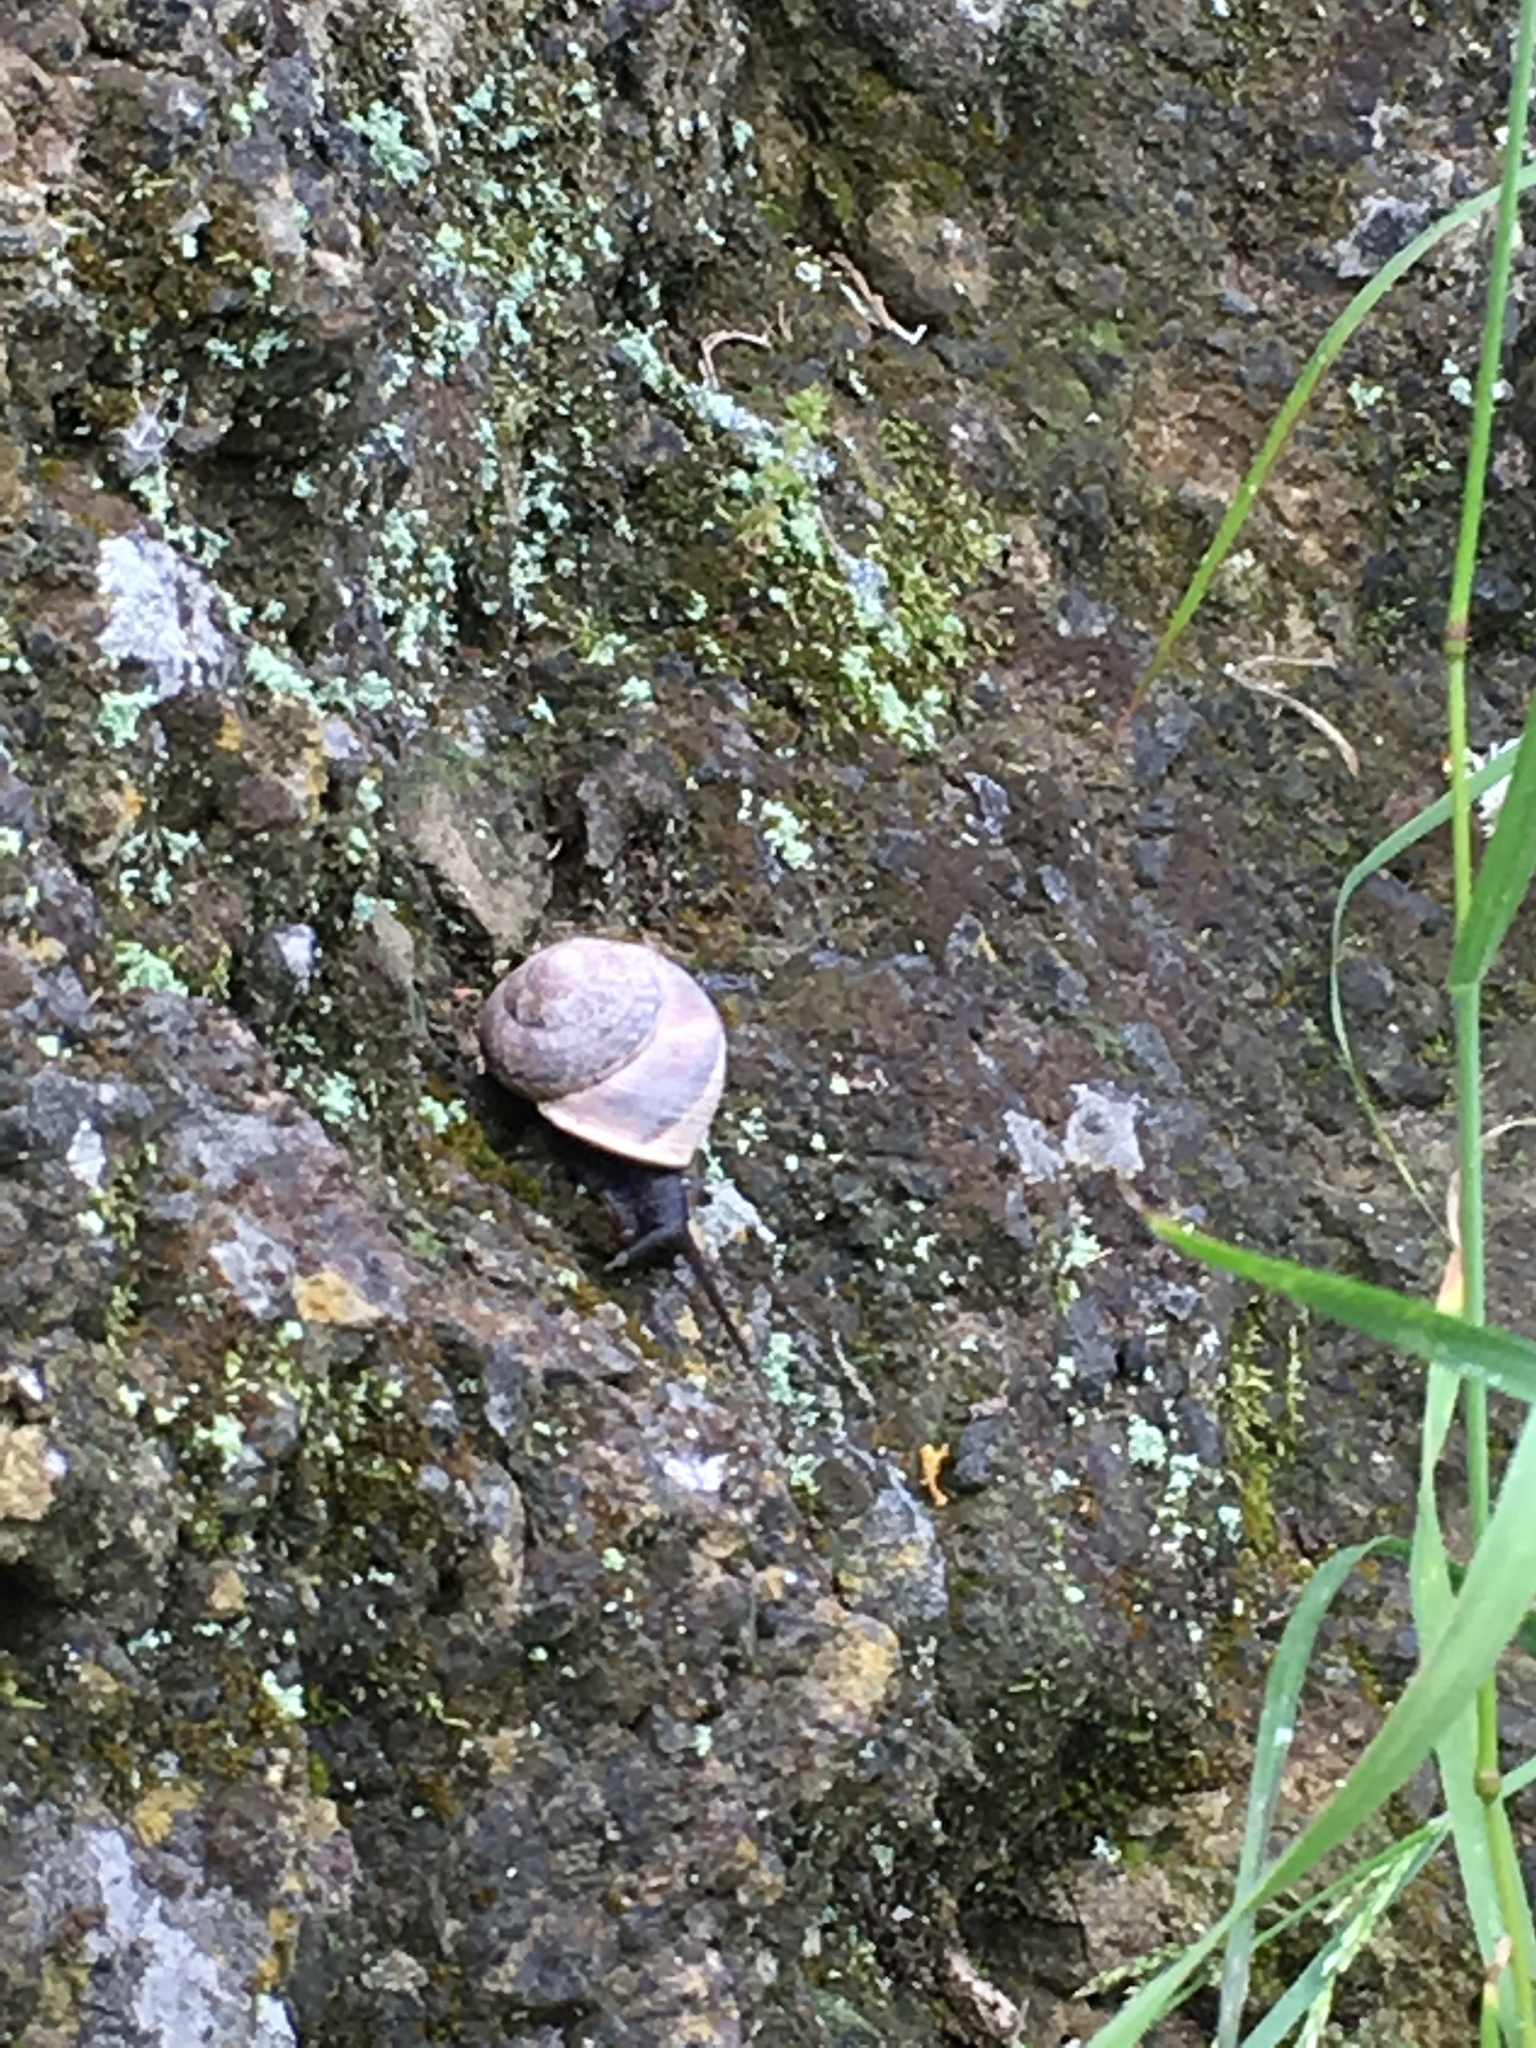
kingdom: Animalia
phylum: Mollusca
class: Gastropoda
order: Stylommatophora
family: Xanthonychidae
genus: Xerarionta
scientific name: Xerarionta tryoni
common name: Bicolor cactus snail
